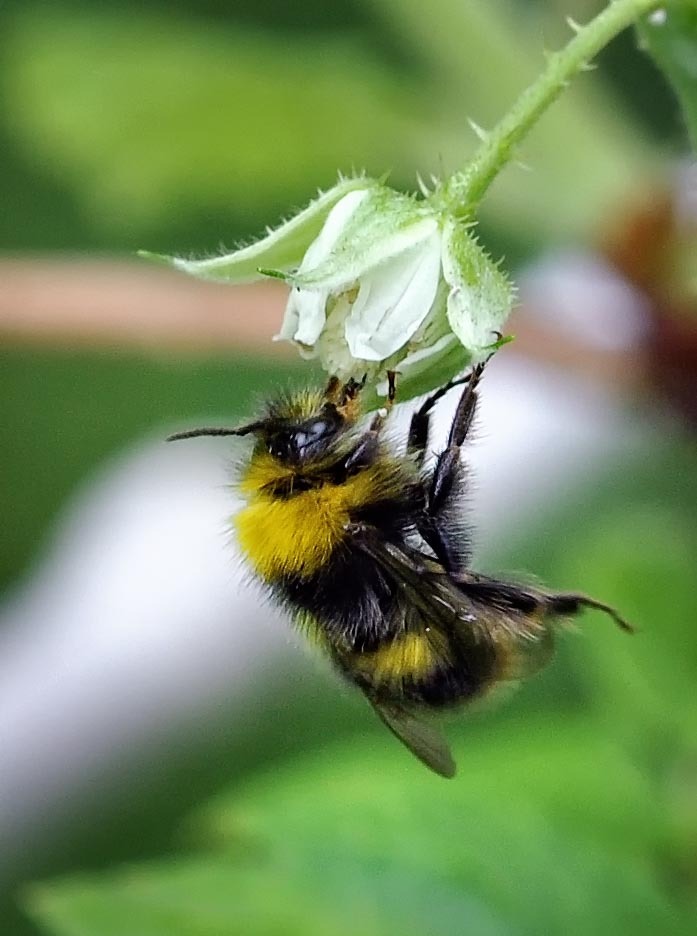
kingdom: Animalia
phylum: Arthropoda
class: Insecta
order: Hymenoptera
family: Apidae
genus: Bombus
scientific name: Bombus pratorum
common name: Early humble-bee
